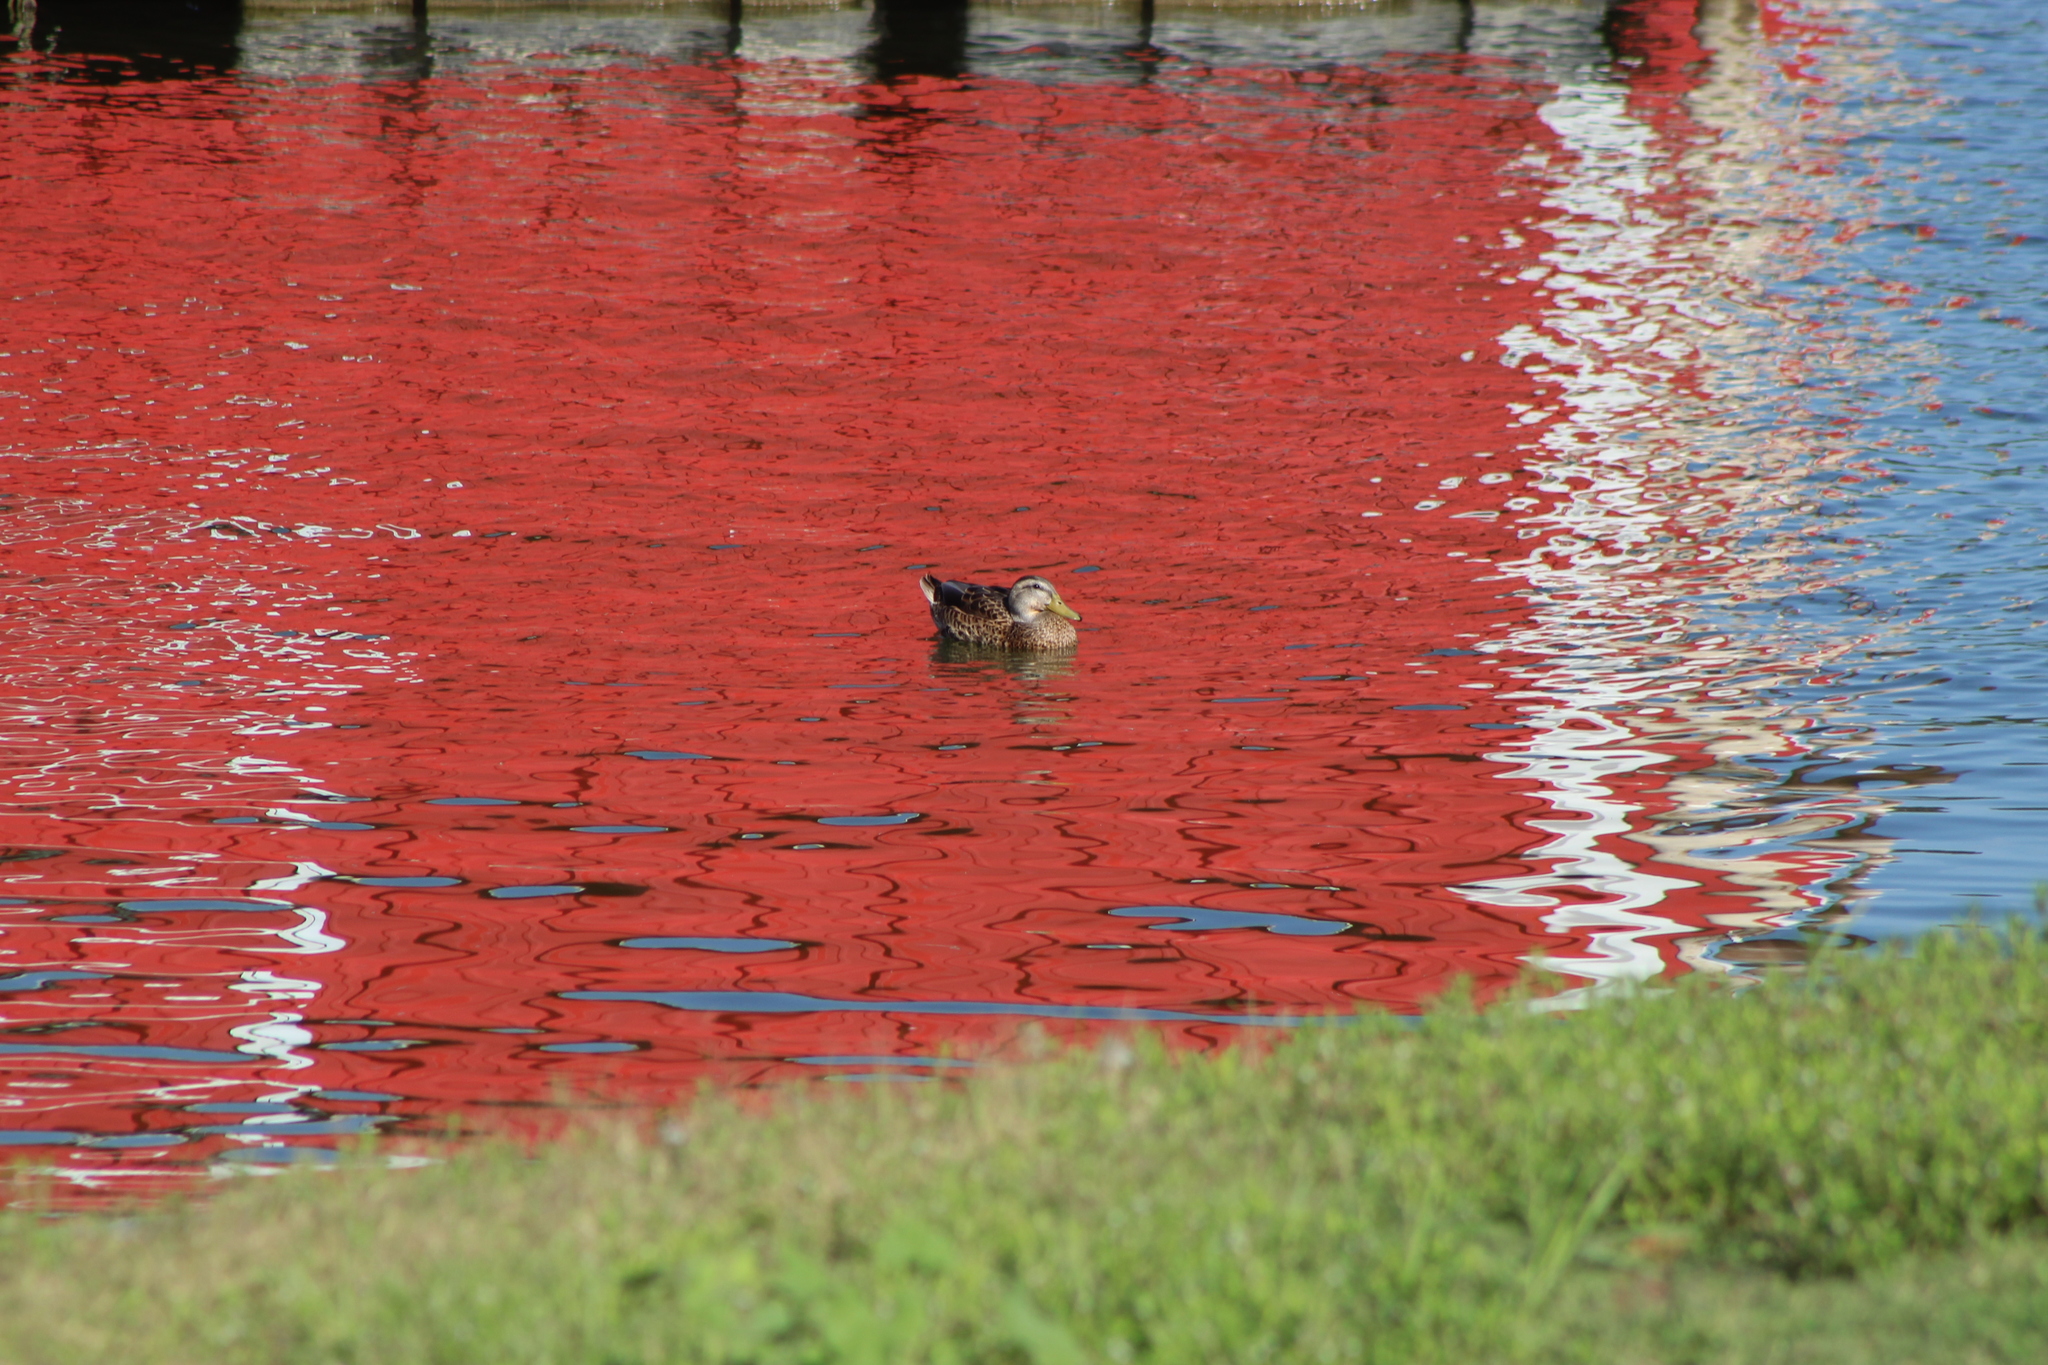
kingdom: Animalia
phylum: Chordata
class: Aves
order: Anseriformes
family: Anatidae
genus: Anas
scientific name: Anas platyrhynchos
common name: Mallard
